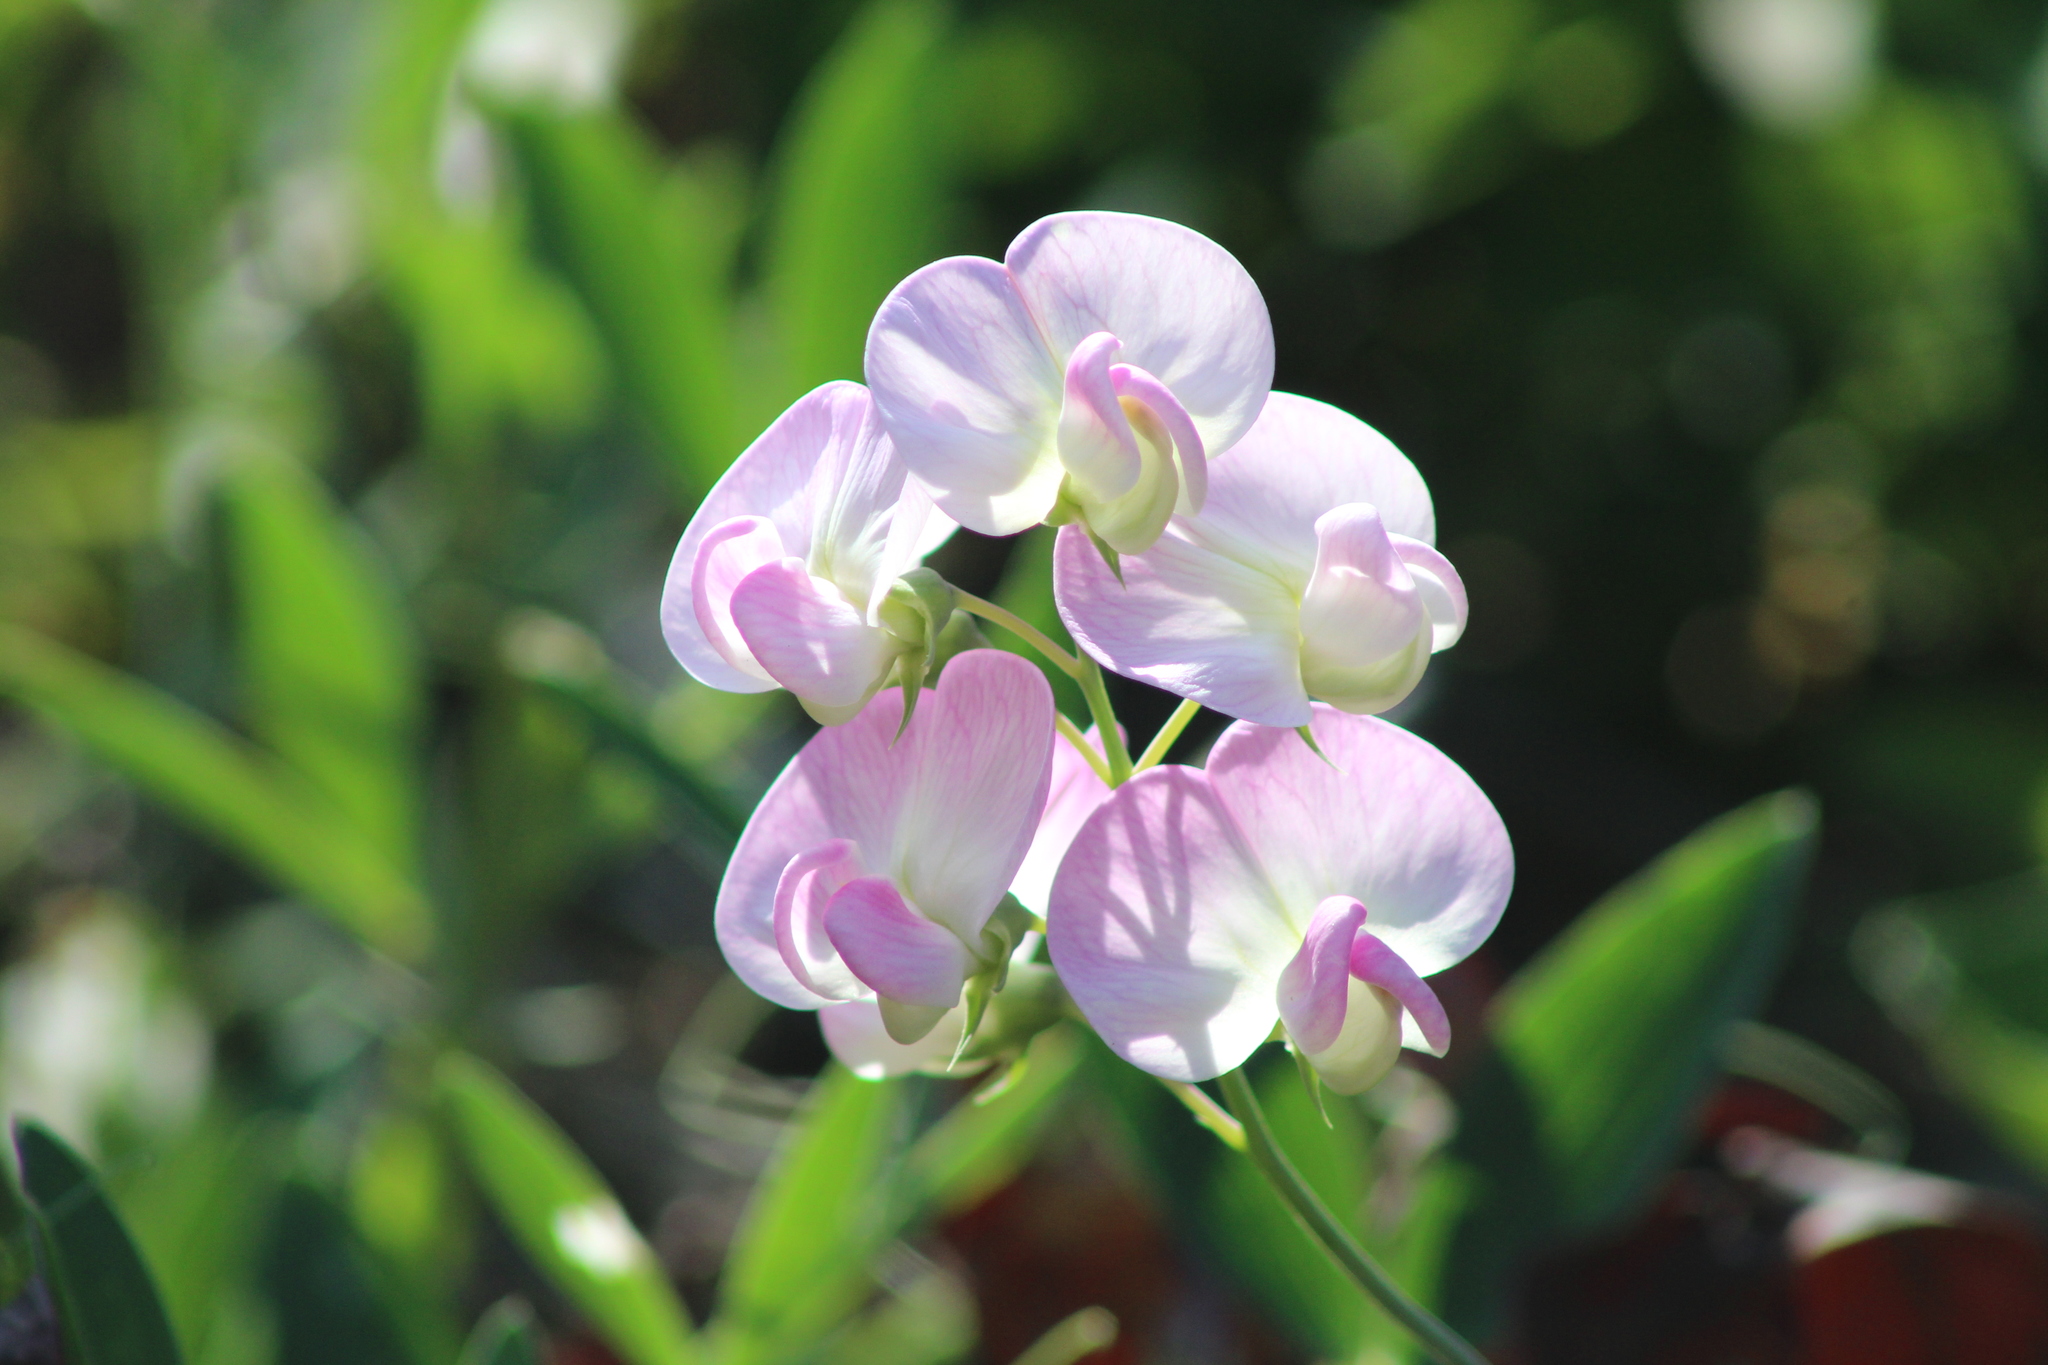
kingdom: Plantae
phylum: Tracheophyta
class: Magnoliopsida
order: Fabales
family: Fabaceae
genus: Lathyrus
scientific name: Lathyrus latifolius
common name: Perennial pea
